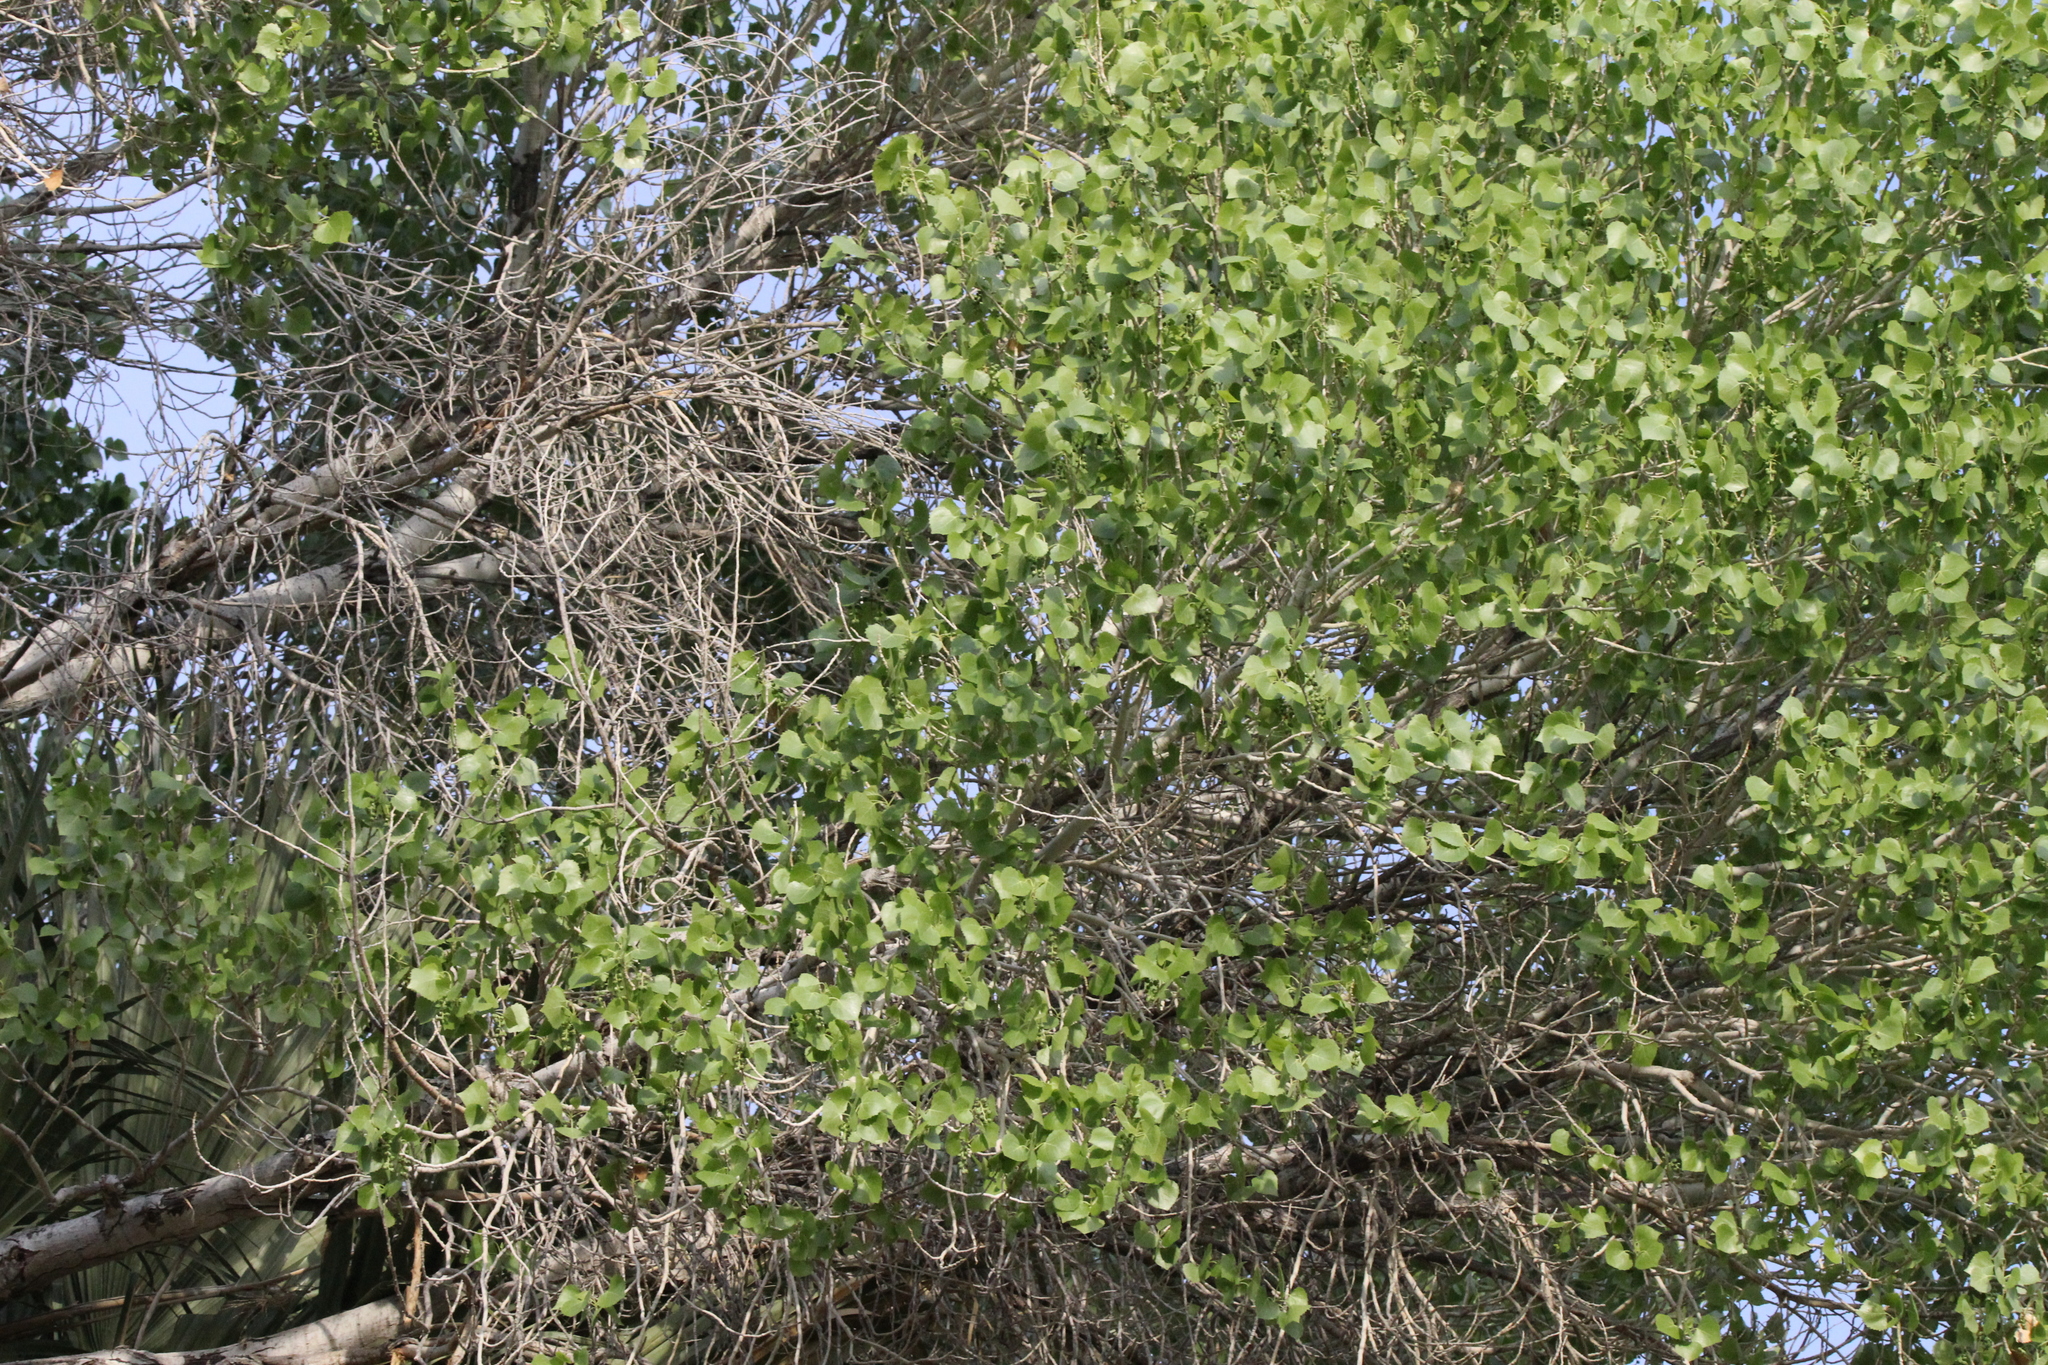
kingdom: Plantae
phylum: Tracheophyta
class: Magnoliopsida
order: Malpighiales
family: Salicaceae
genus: Populus
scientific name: Populus fremontii
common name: Fremont's cottonwood
